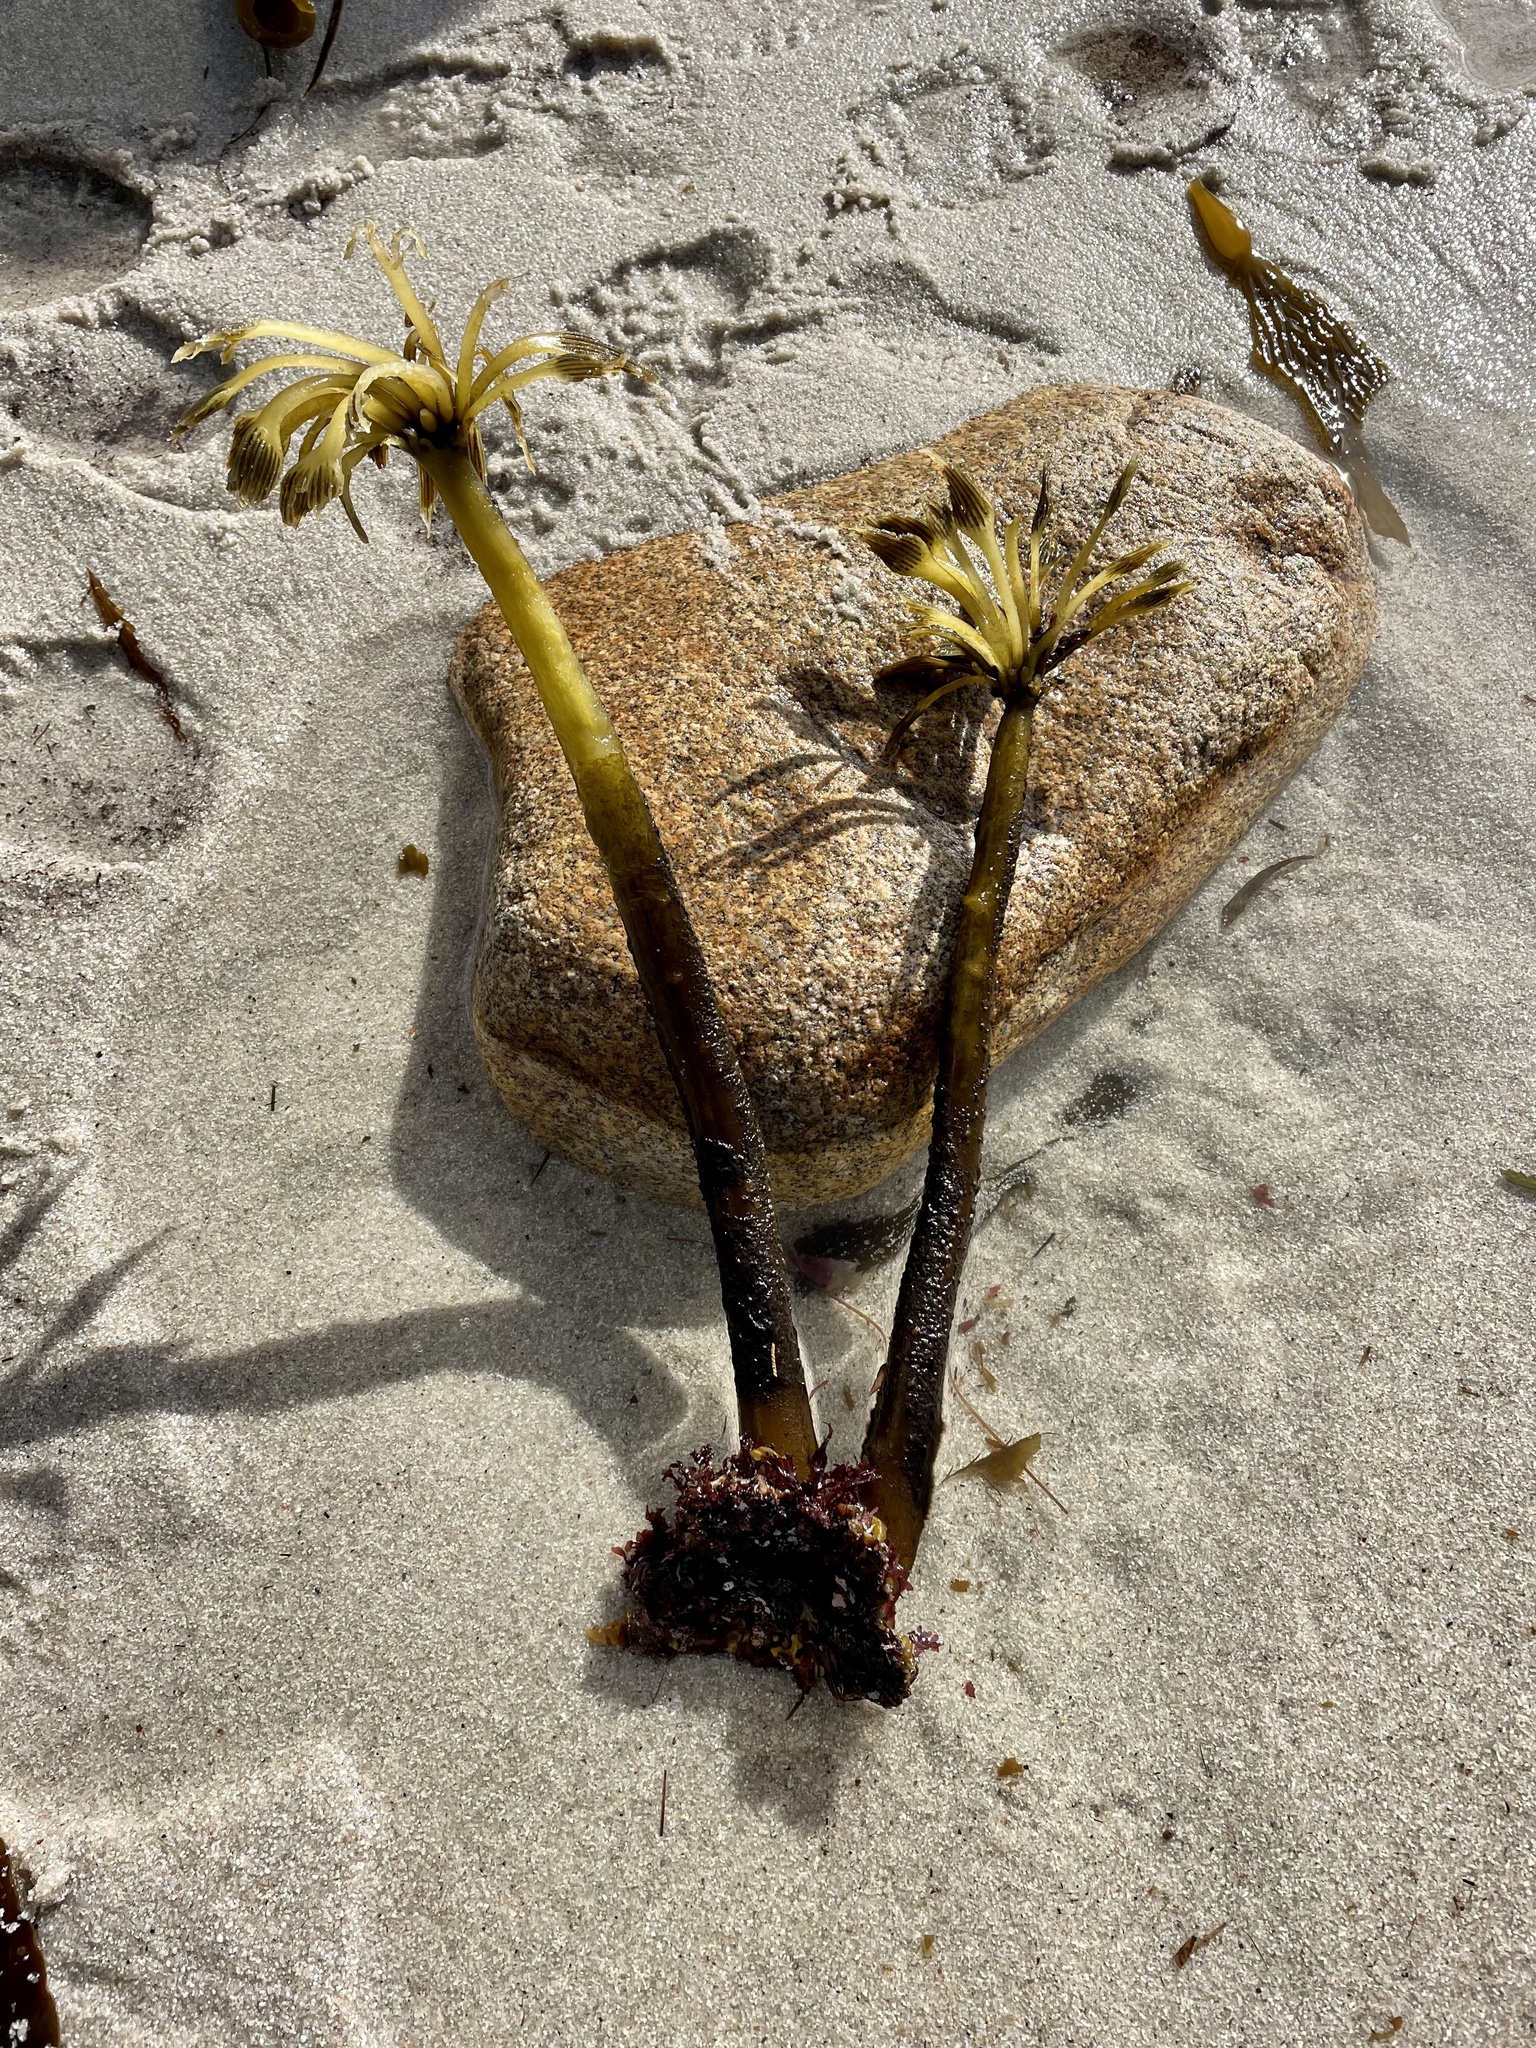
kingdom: Chromista
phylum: Ochrophyta
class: Phaeophyceae
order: Laminariales
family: Laminariaceae
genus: Postelsia
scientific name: Postelsia palmiformis
